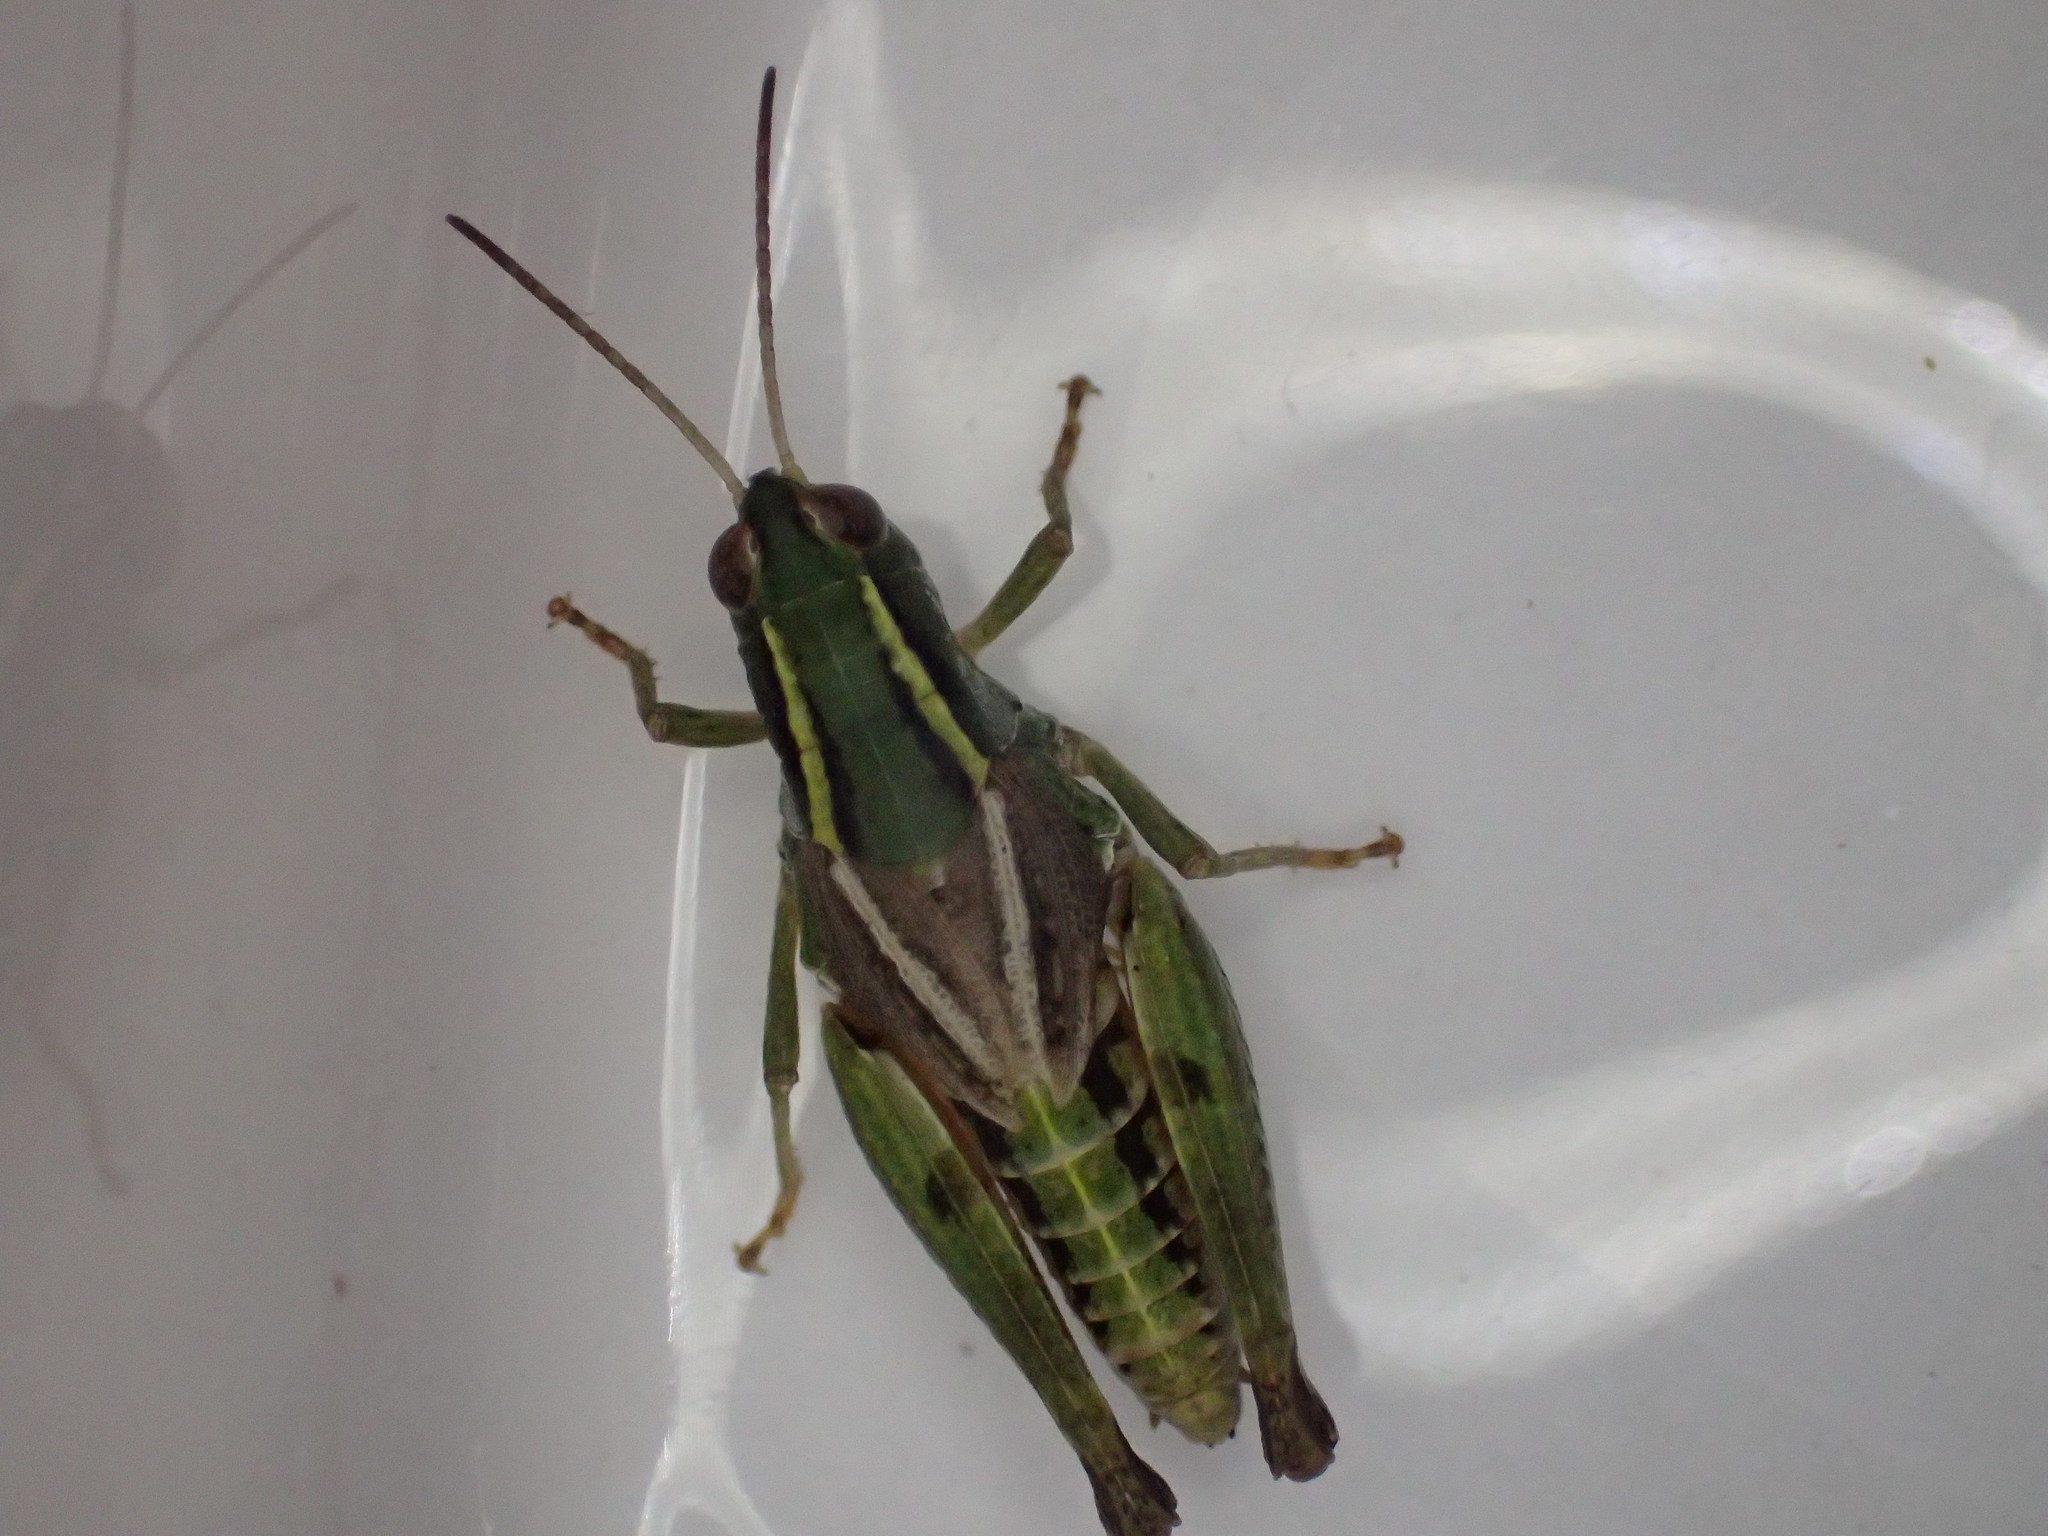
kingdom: Animalia
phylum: Arthropoda
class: Insecta
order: Orthoptera
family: Acrididae
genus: Phaulacridium
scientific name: Phaulacridium vittatum
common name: Wingless grasshopper
